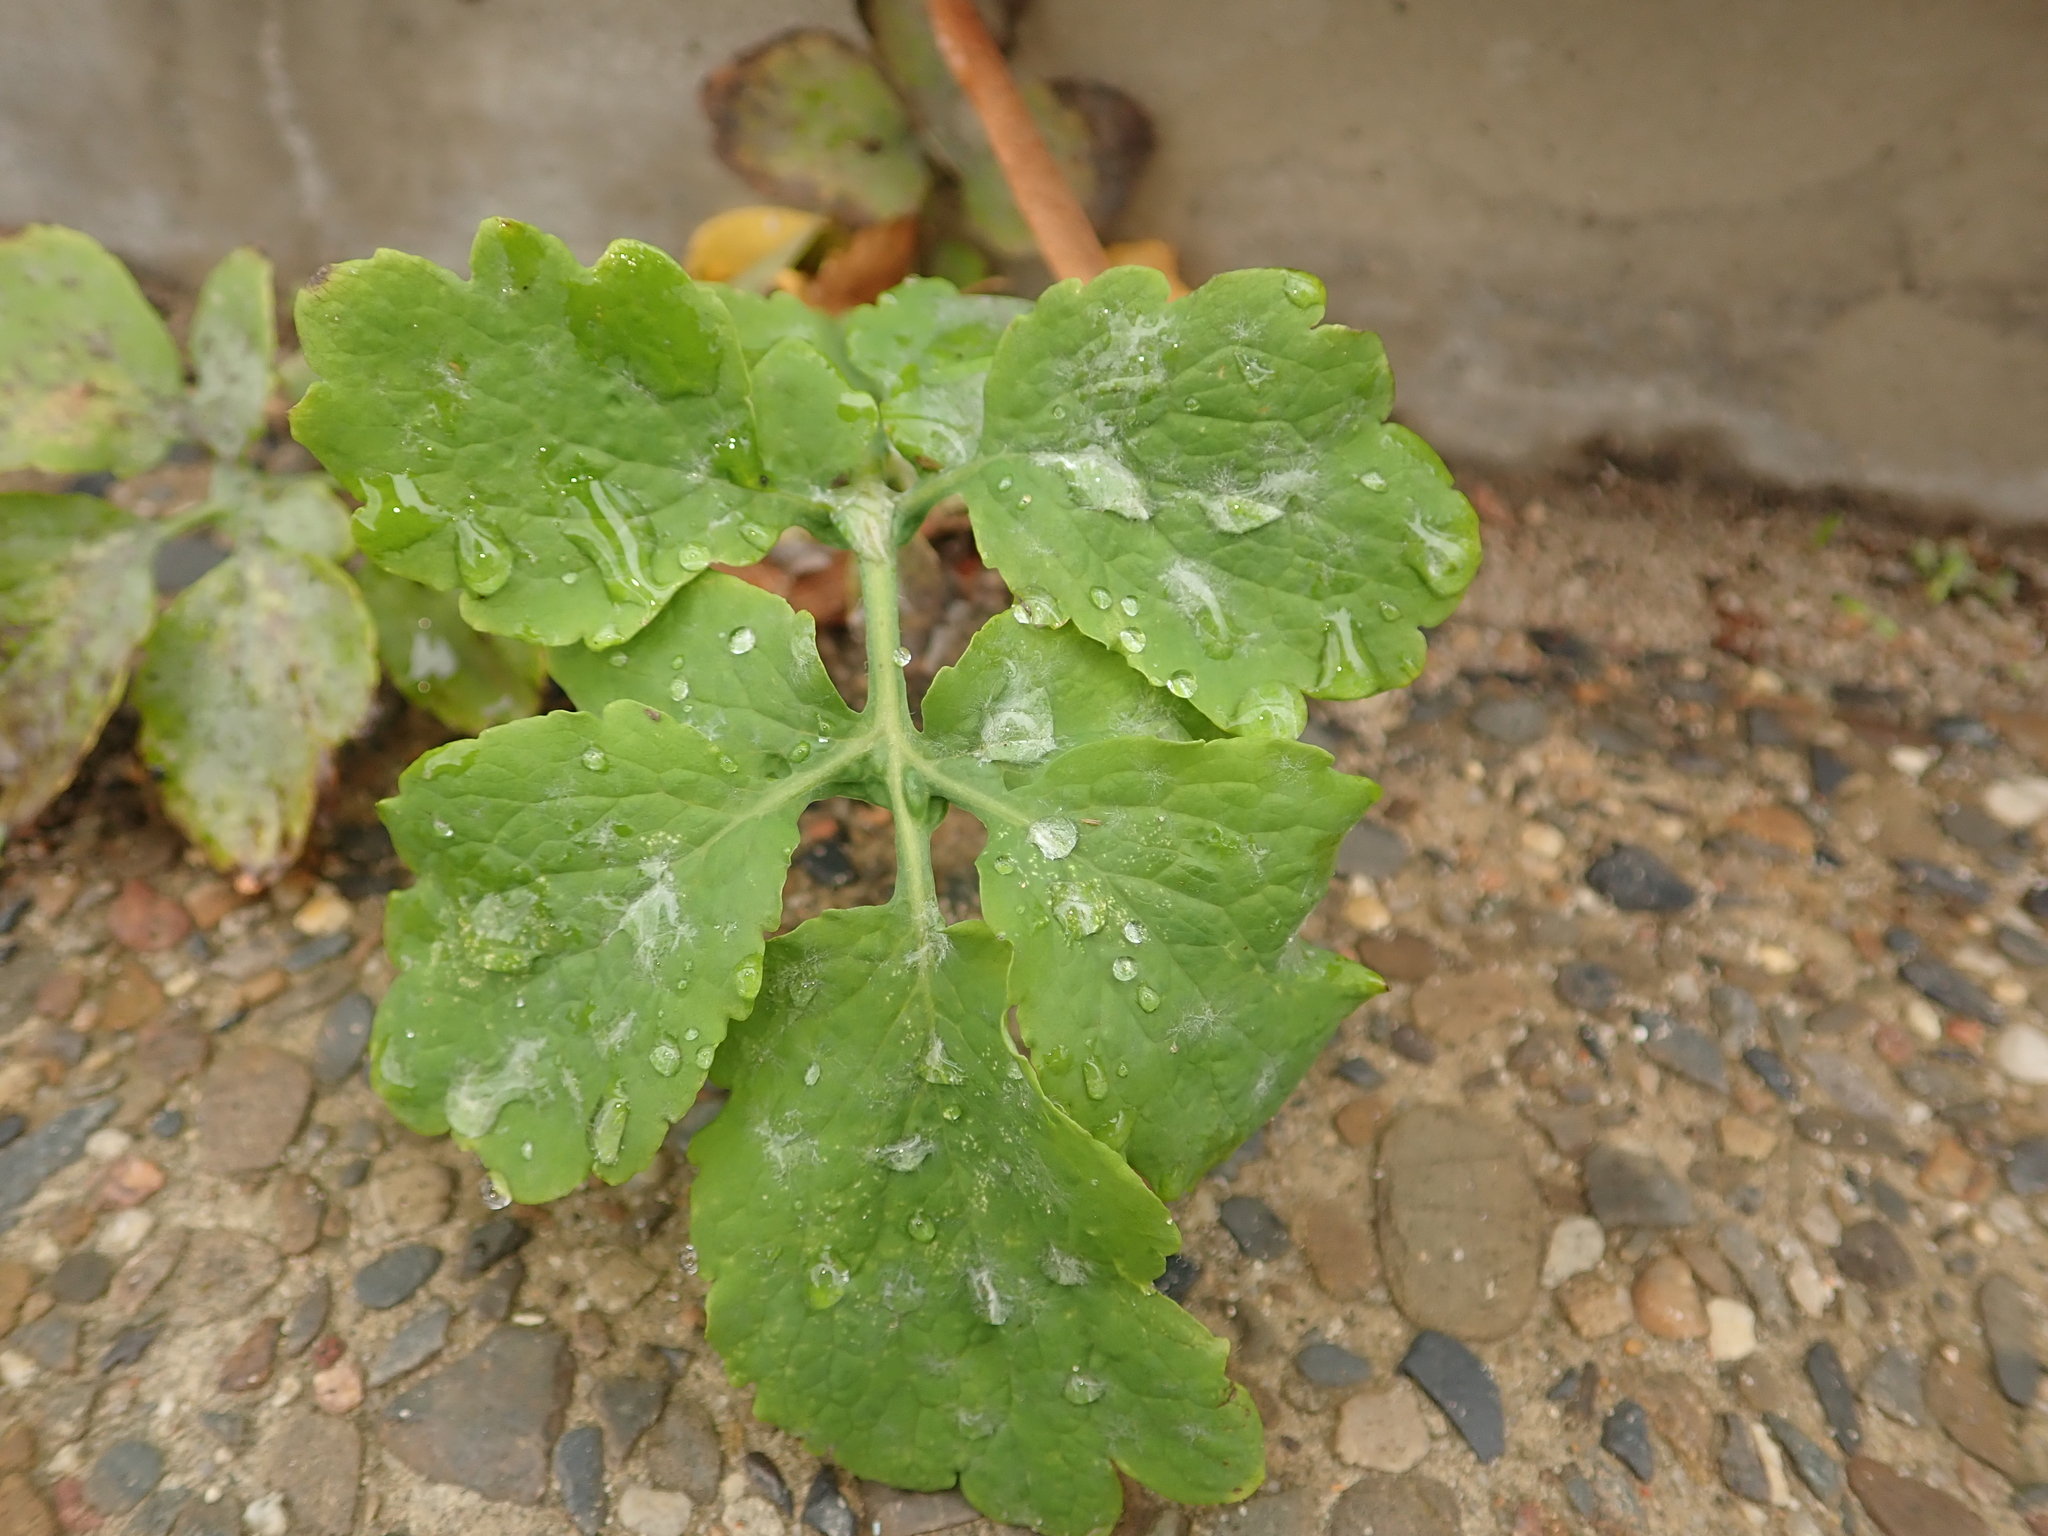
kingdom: Plantae
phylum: Tracheophyta
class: Magnoliopsida
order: Ranunculales
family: Papaveraceae
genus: Chelidonium
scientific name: Chelidonium majus
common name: Greater celandine
